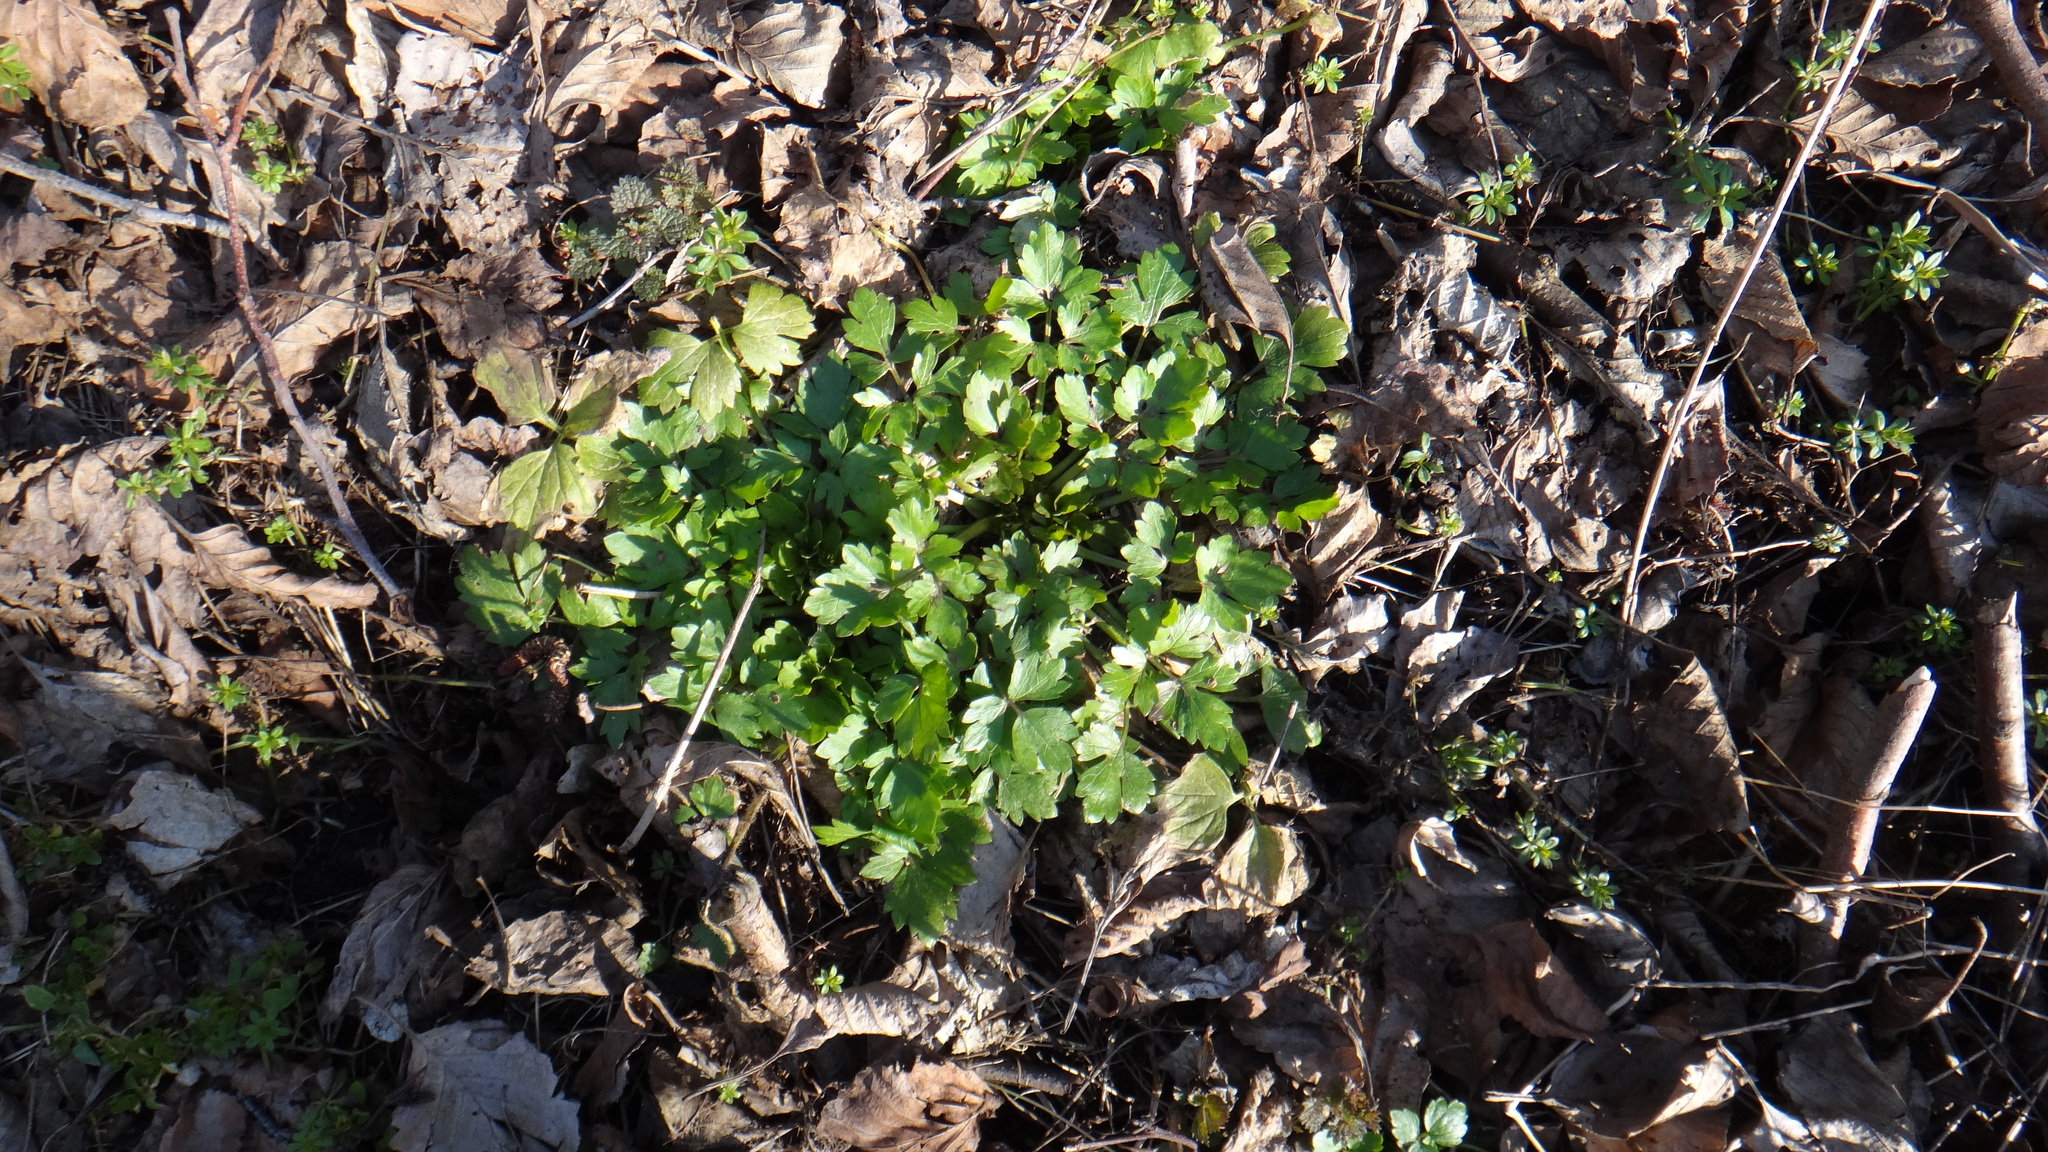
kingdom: Plantae
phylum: Tracheophyta
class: Magnoliopsida
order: Ranunculales
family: Ranunculaceae
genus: Ranunculus
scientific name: Ranunculus repens
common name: Creeping buttercup
